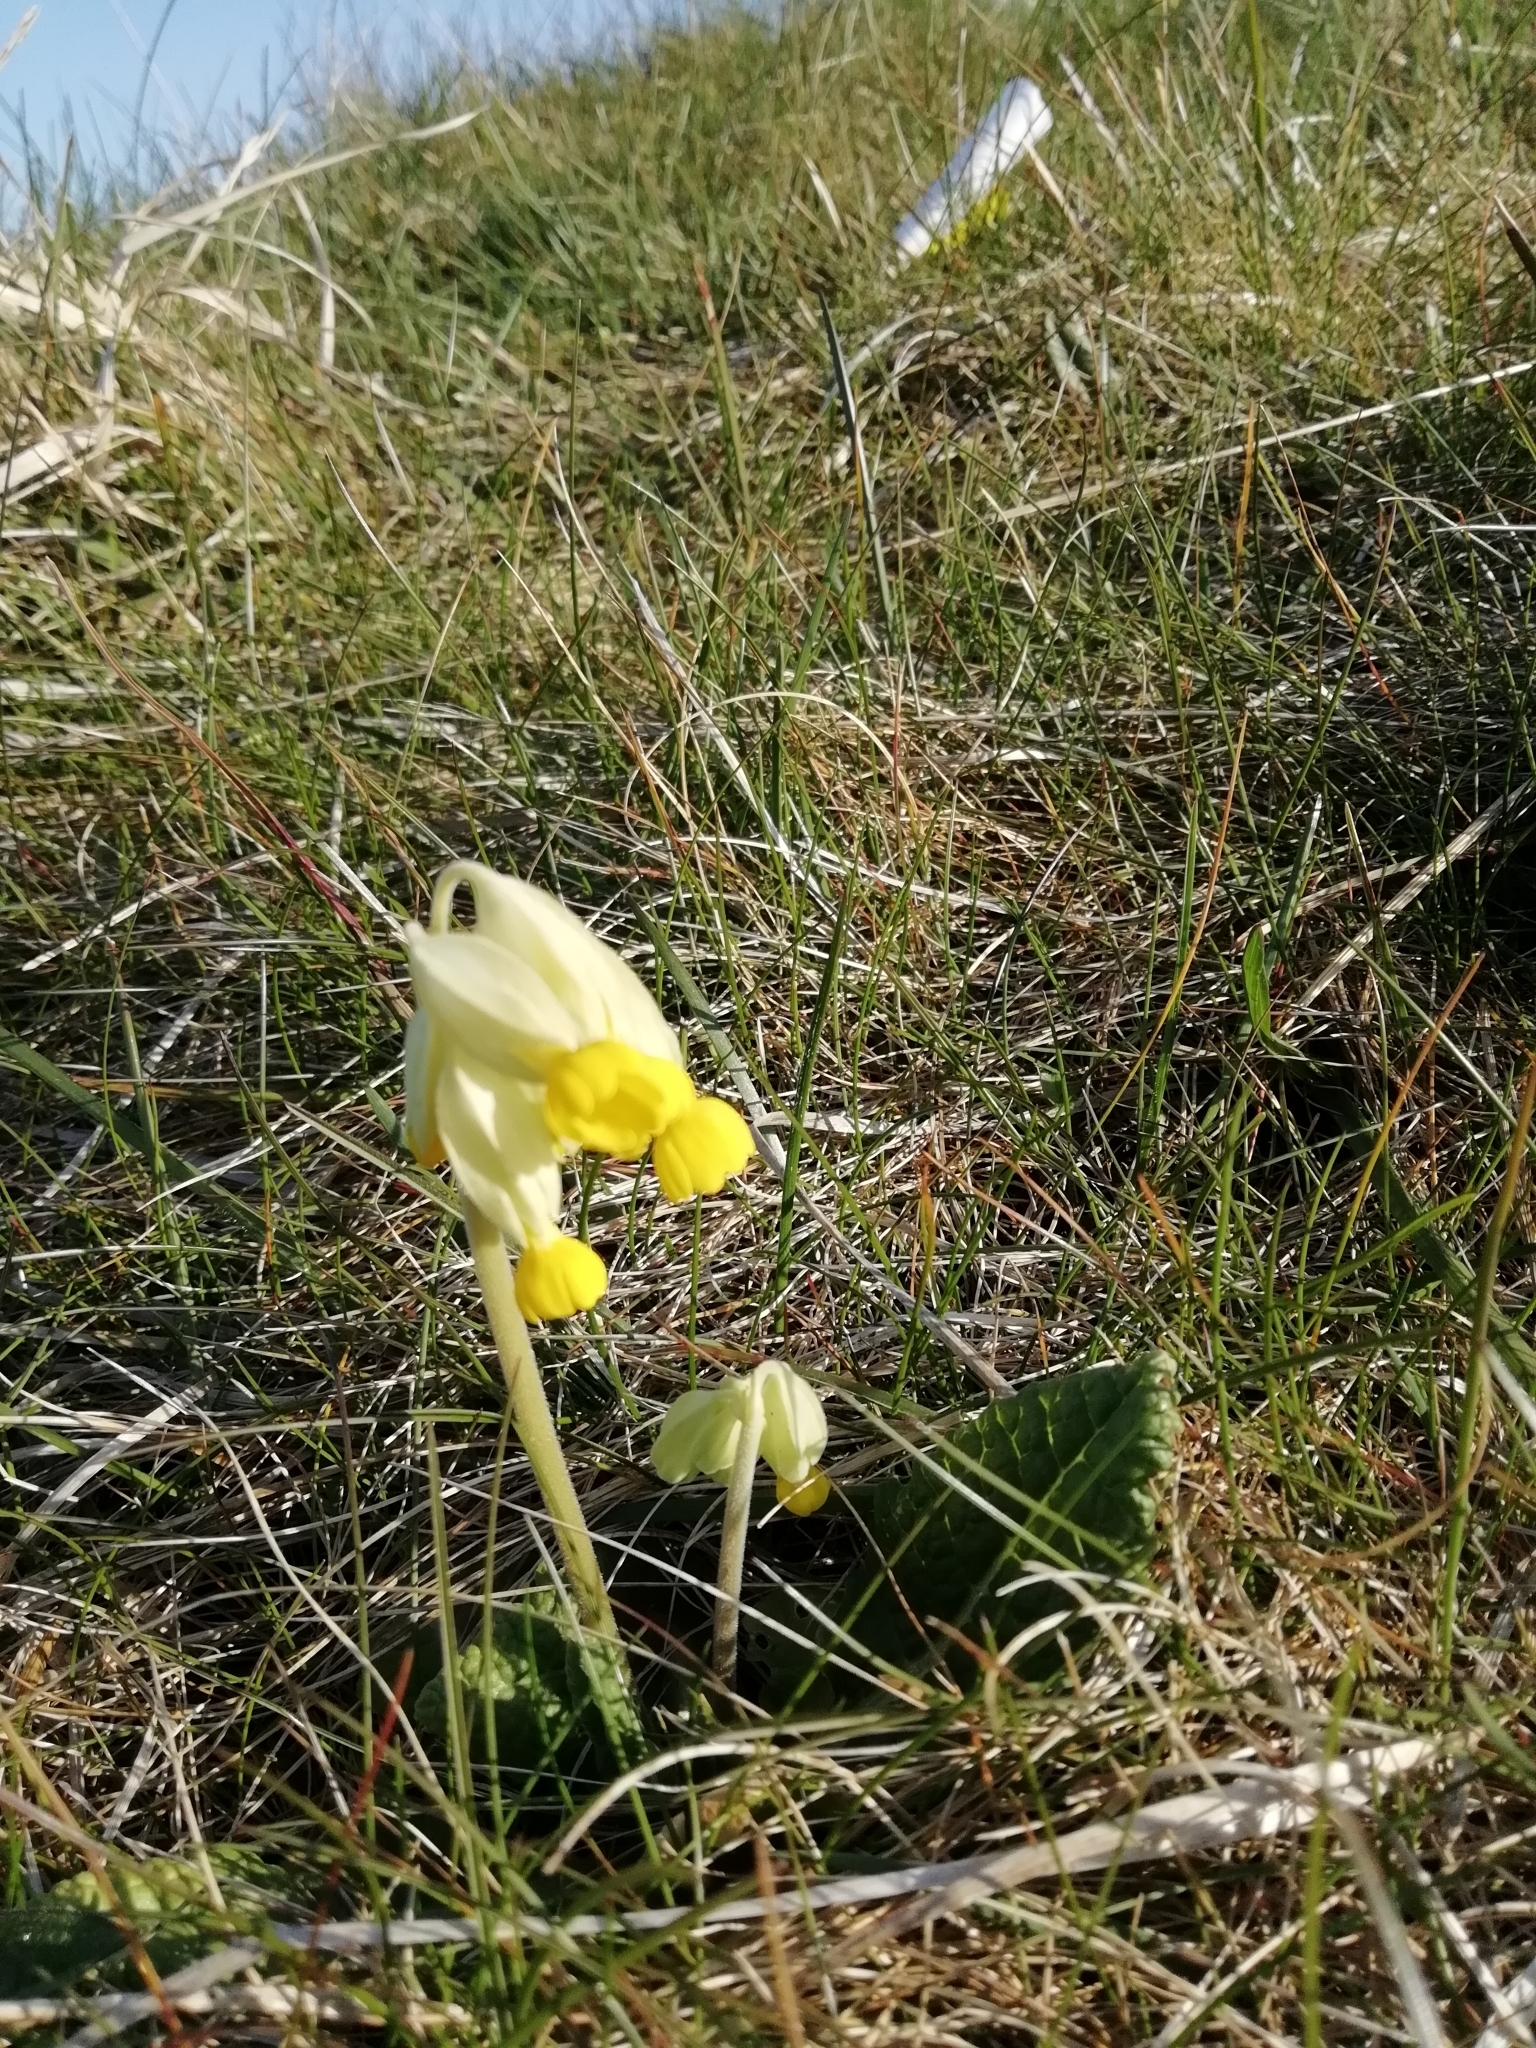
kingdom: Plantae
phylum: Tracheophyta
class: Magnoliopsida
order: Ericales
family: Primulaceae
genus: Primula
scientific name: Primula veris
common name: Cowslip
